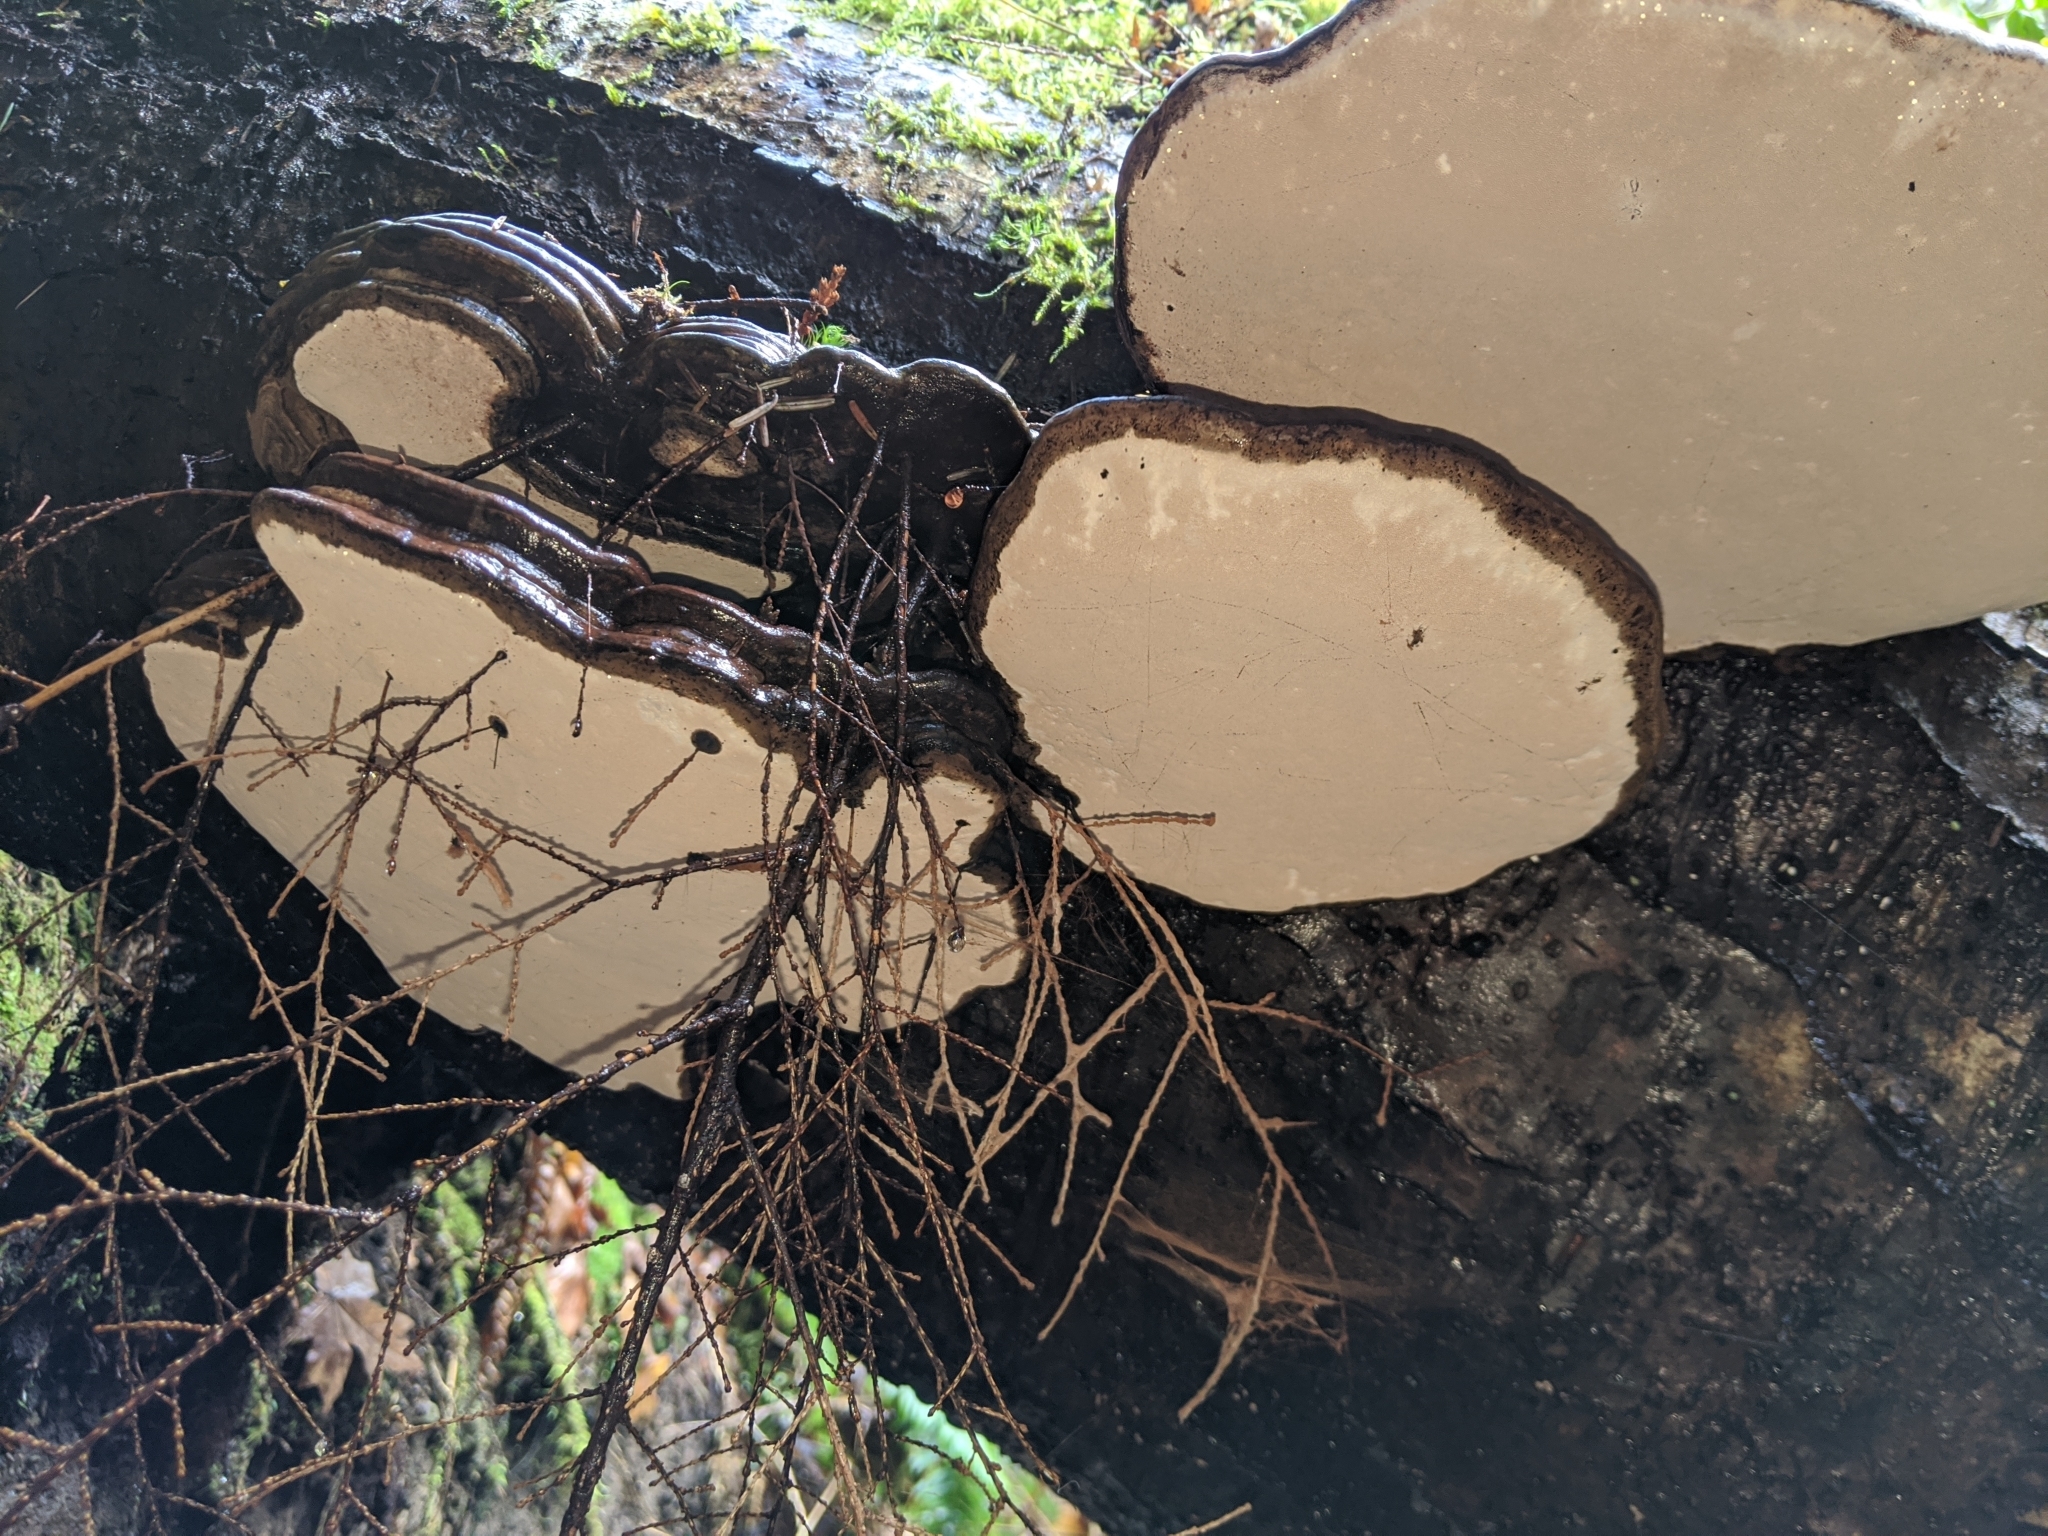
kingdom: Fungi
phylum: Basidiomycota
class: Agaricomycetes
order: Polyporales
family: Polyporaceae
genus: Ganoderma
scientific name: Ganoderma applanatum
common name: Artist's bracket
